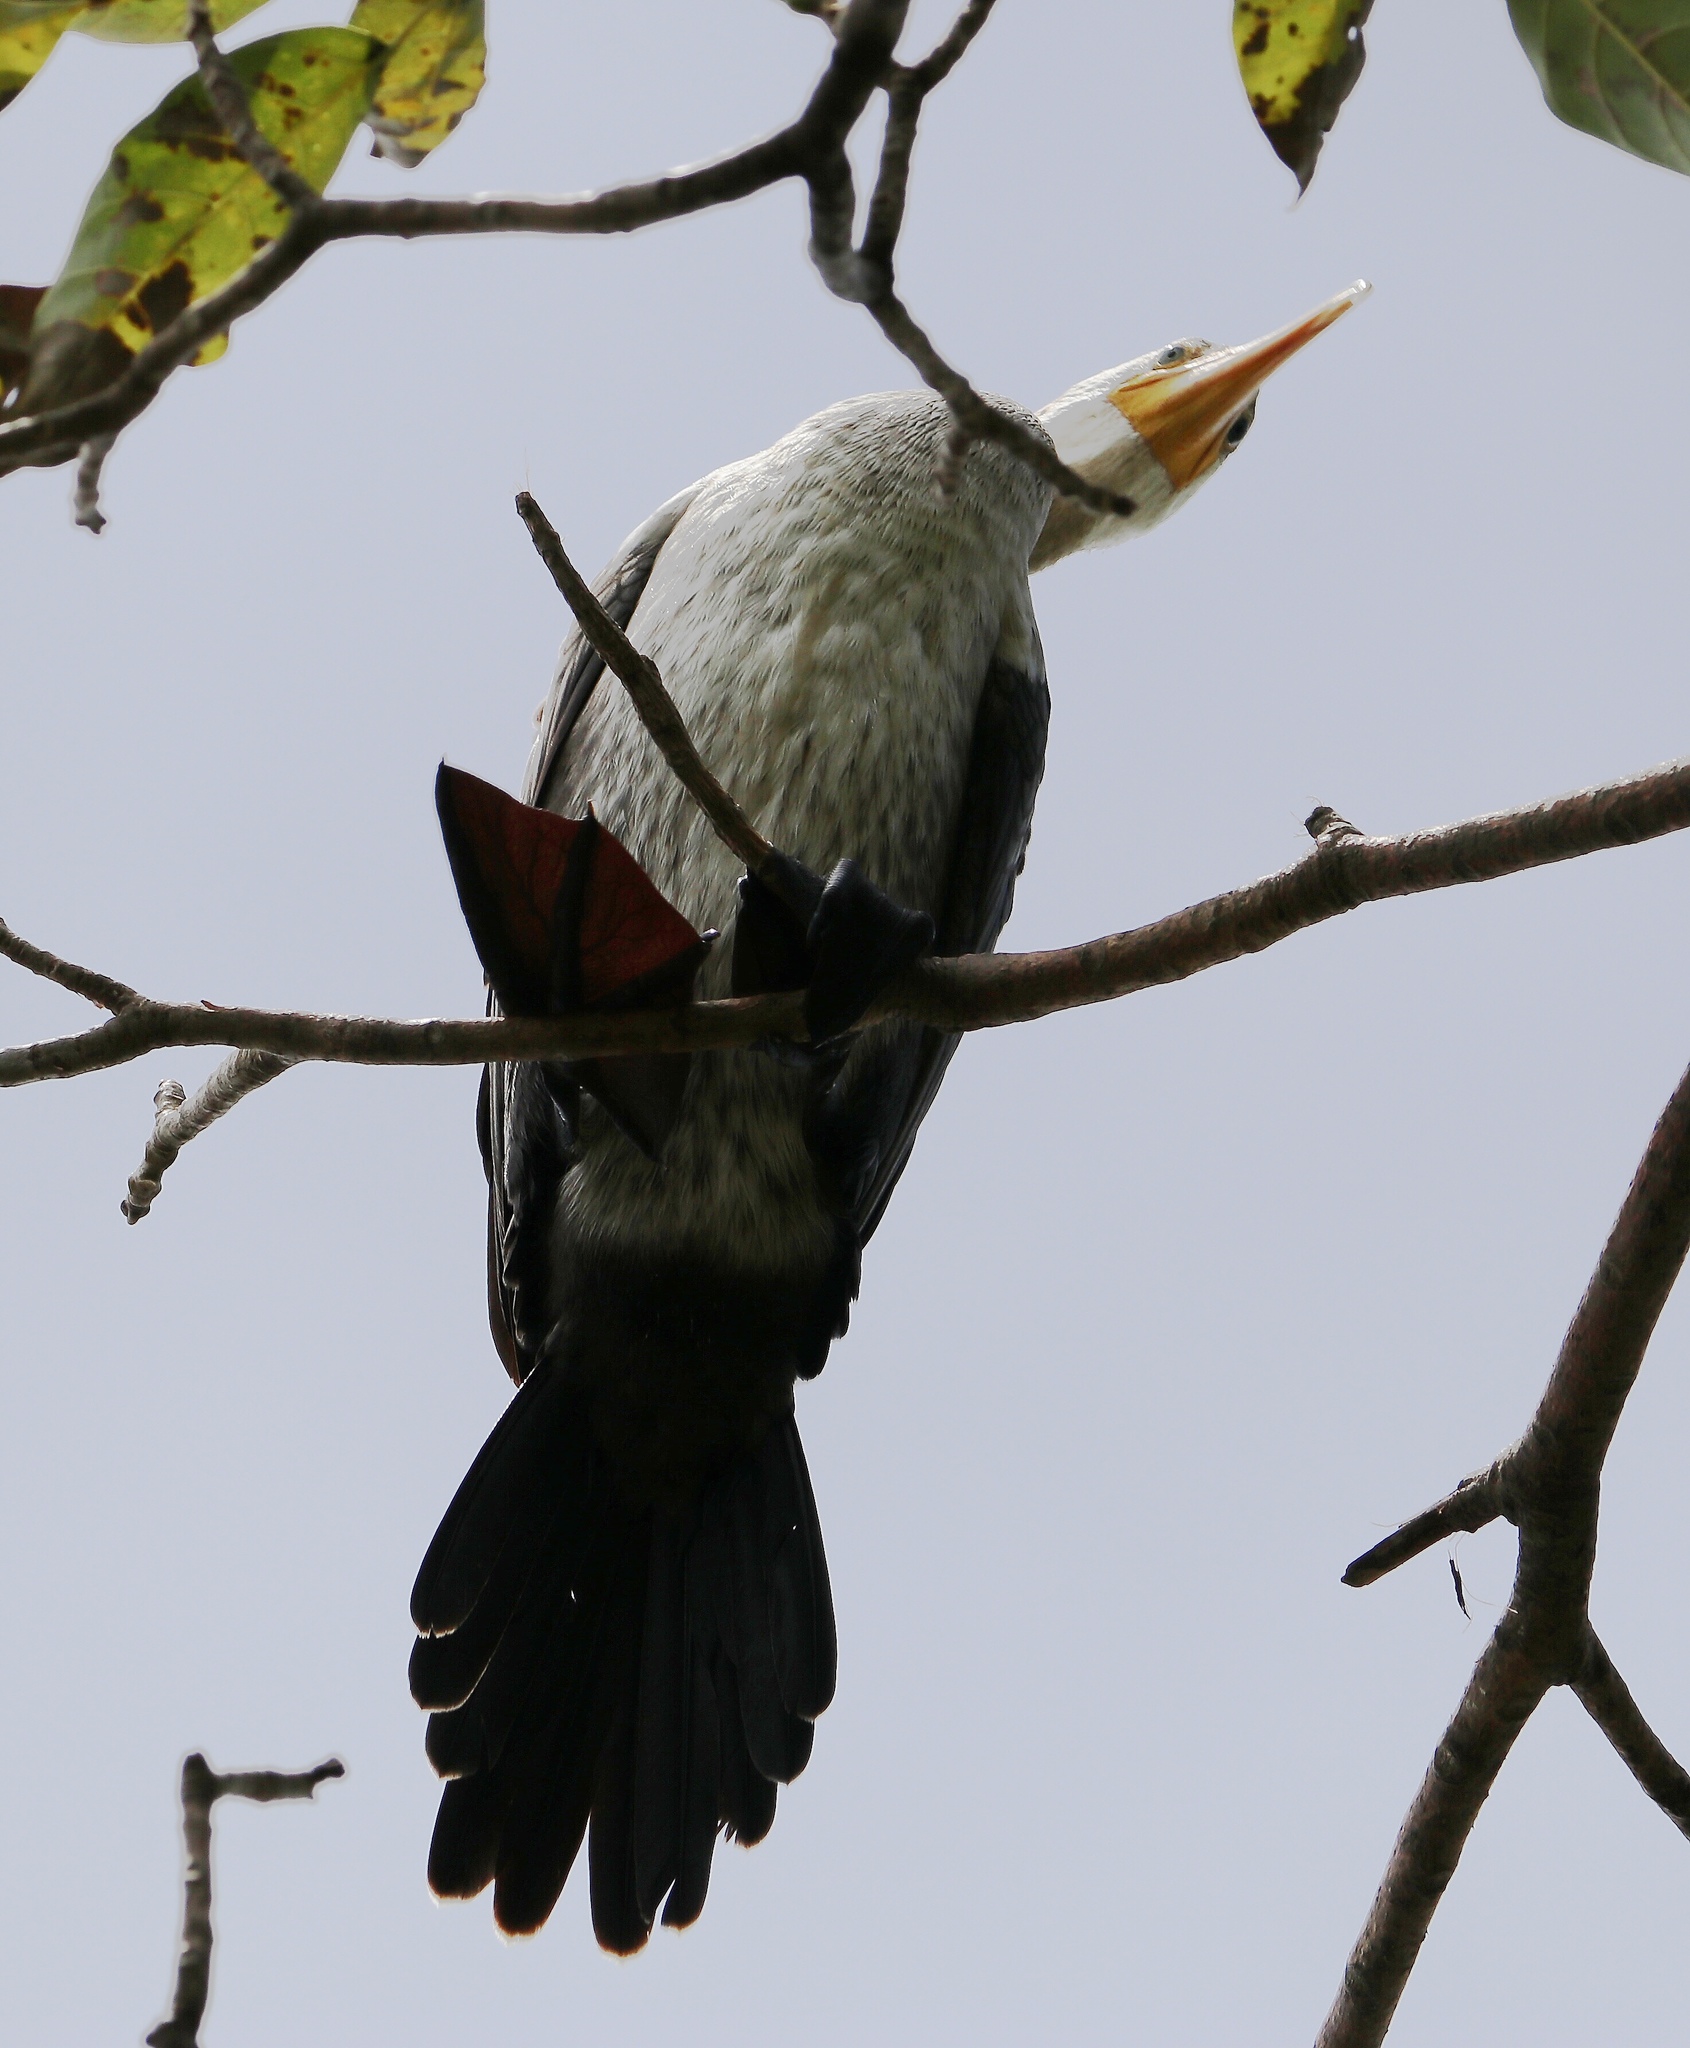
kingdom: Animalia
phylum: Chordata
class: Aves
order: Suliformes
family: Phalacrocoracidae
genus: Phalacrocorax
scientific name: Phalacrocorax brasilianus
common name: Neotropic cormorant
